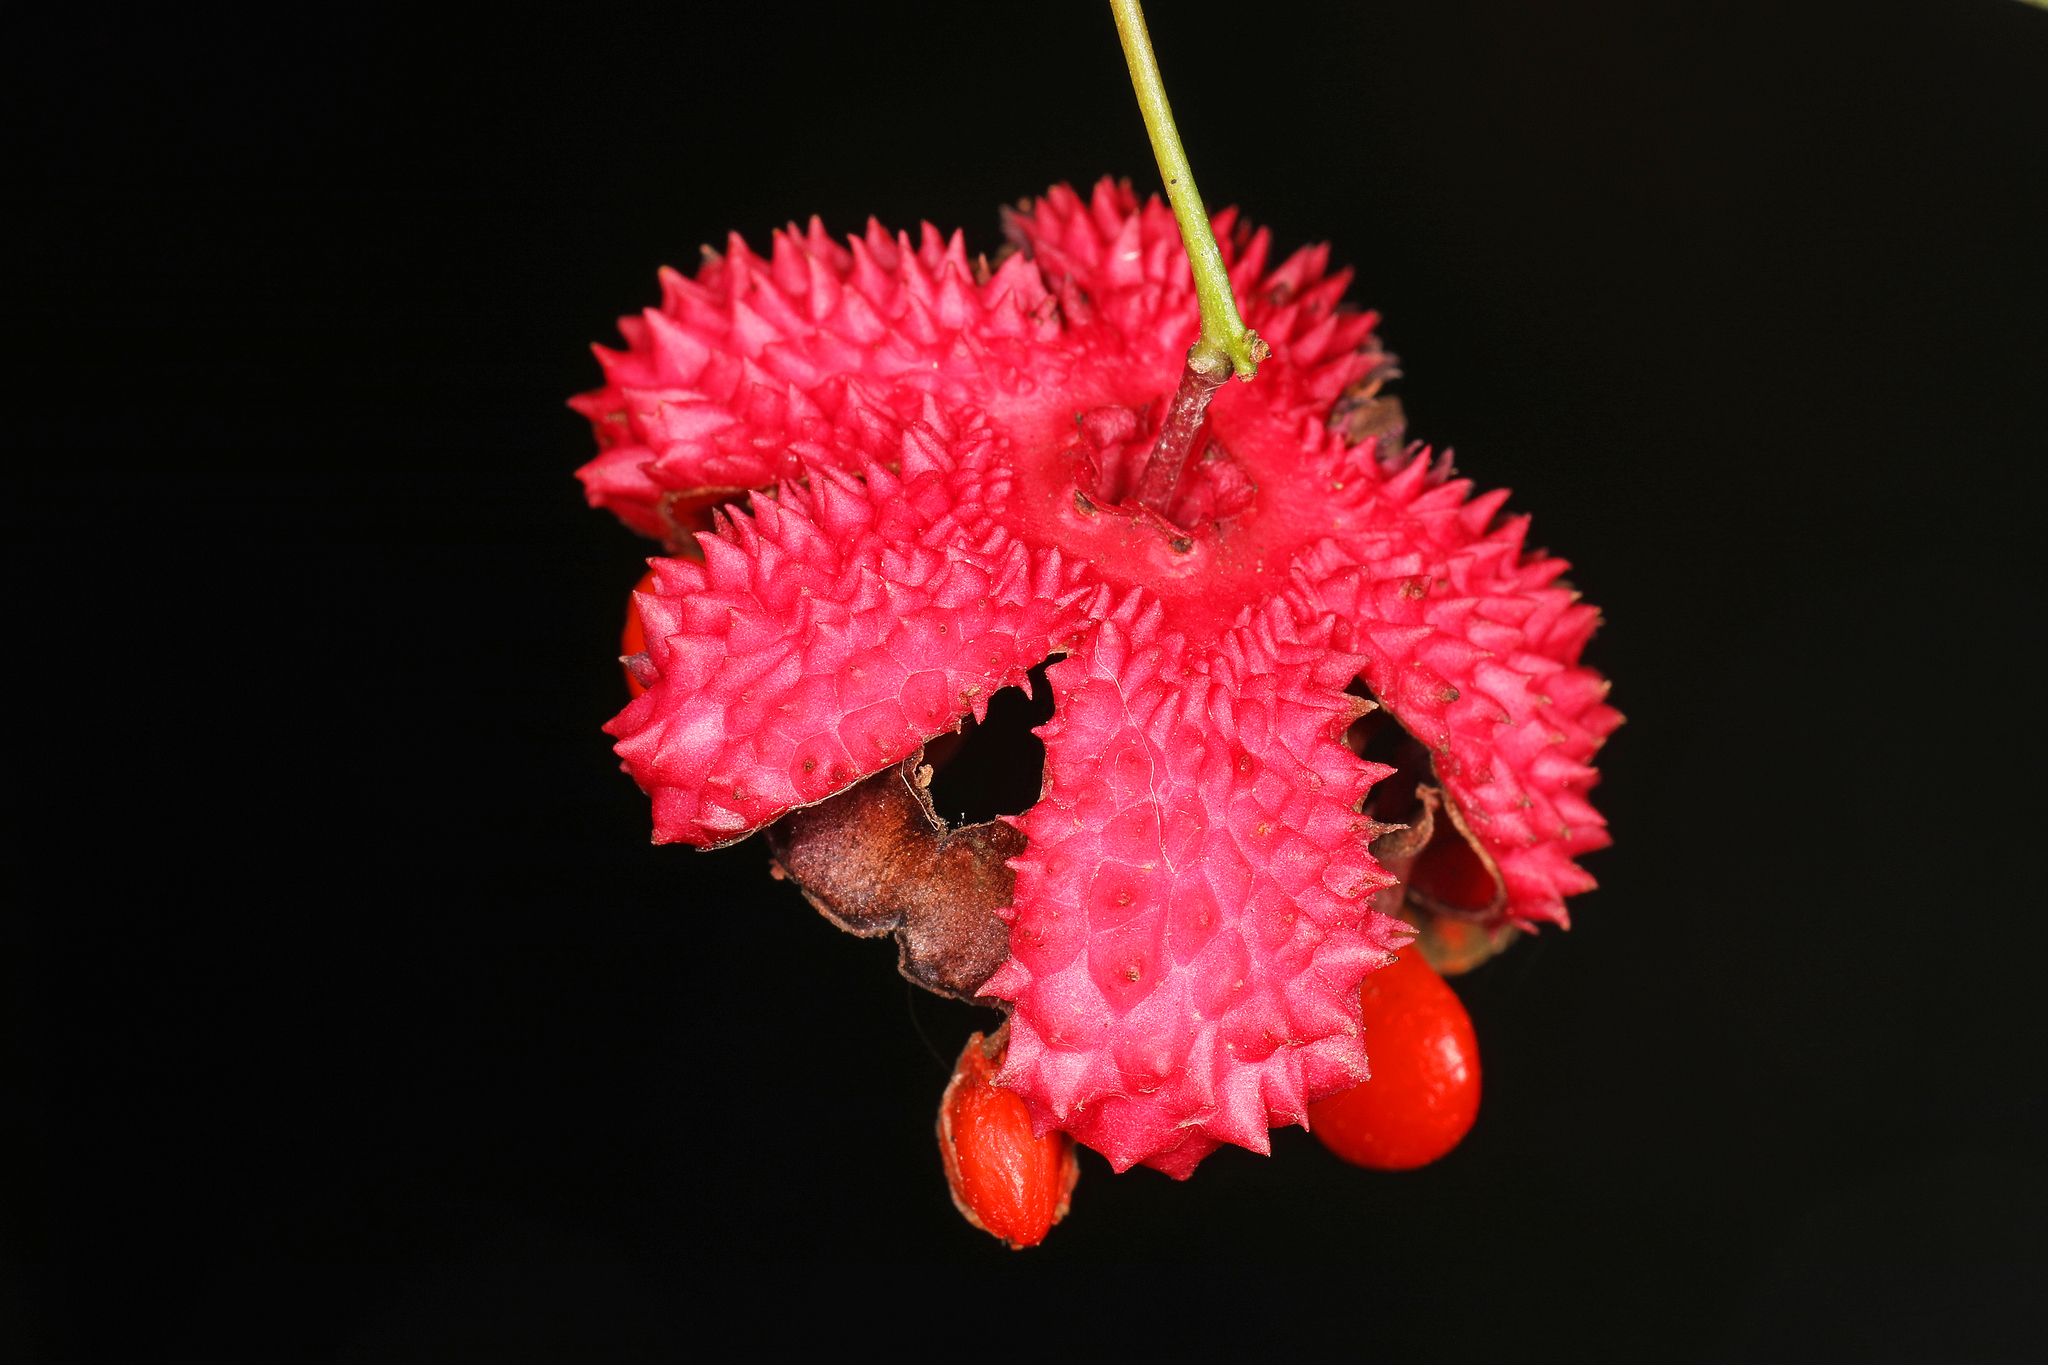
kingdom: Plantae
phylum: Tracheophyta
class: Magnoliopsida
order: Celastrales
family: Celastraceae
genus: Euonymus
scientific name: Euonymus americanus
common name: Bursting-heart
